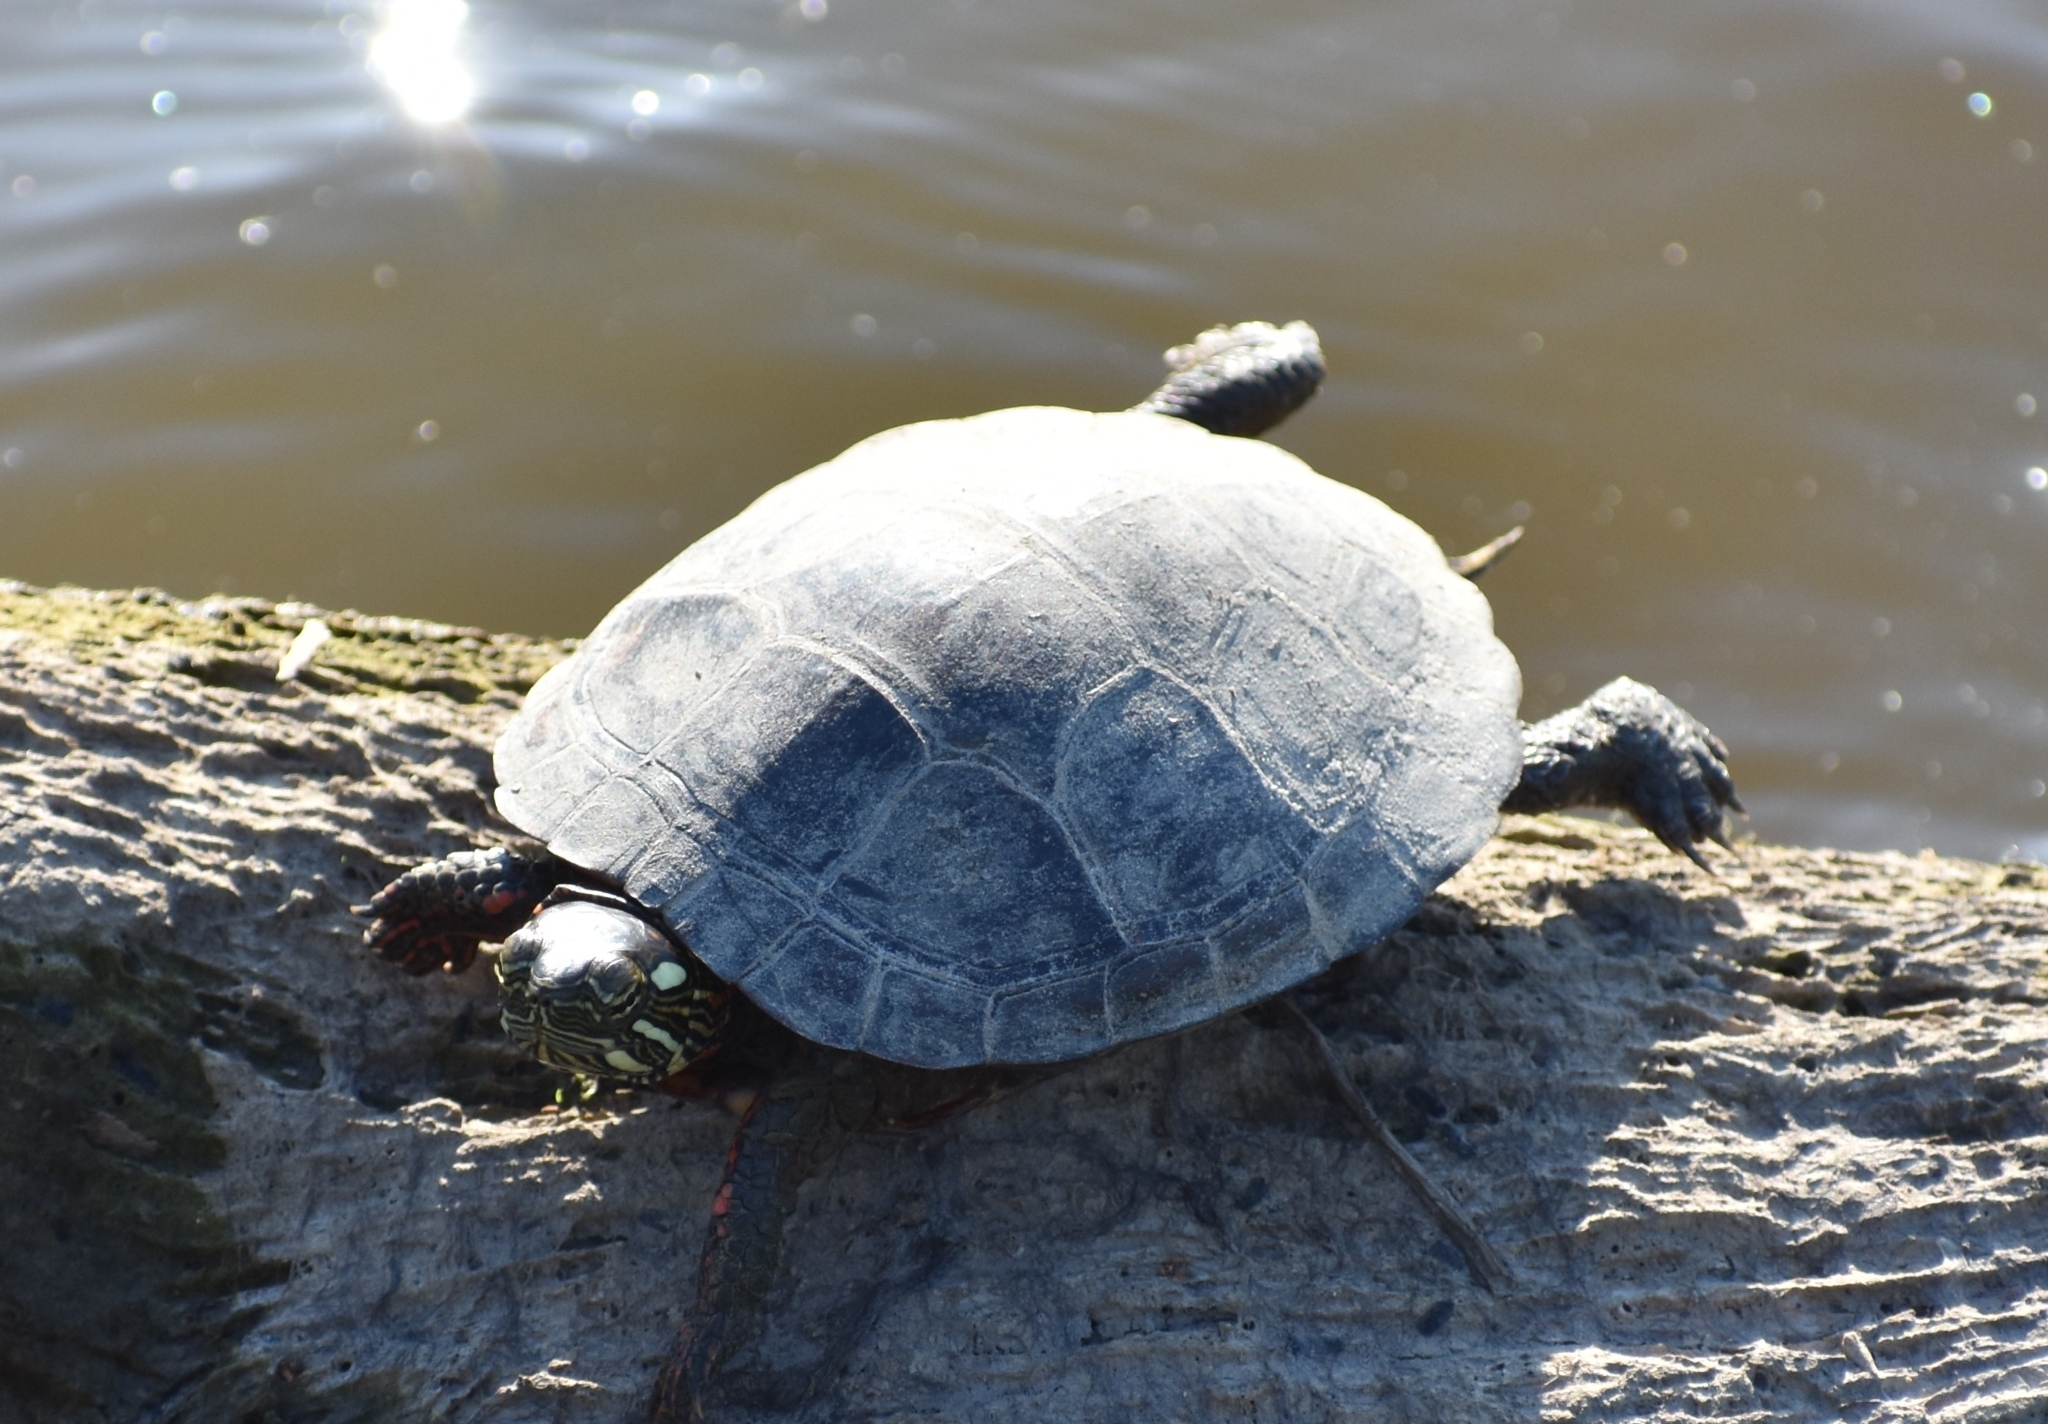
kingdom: Animalia
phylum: Chordata
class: Testudines
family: Emydidae
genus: Chrysemys
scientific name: Chrysemys picta
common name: Painted turtle
